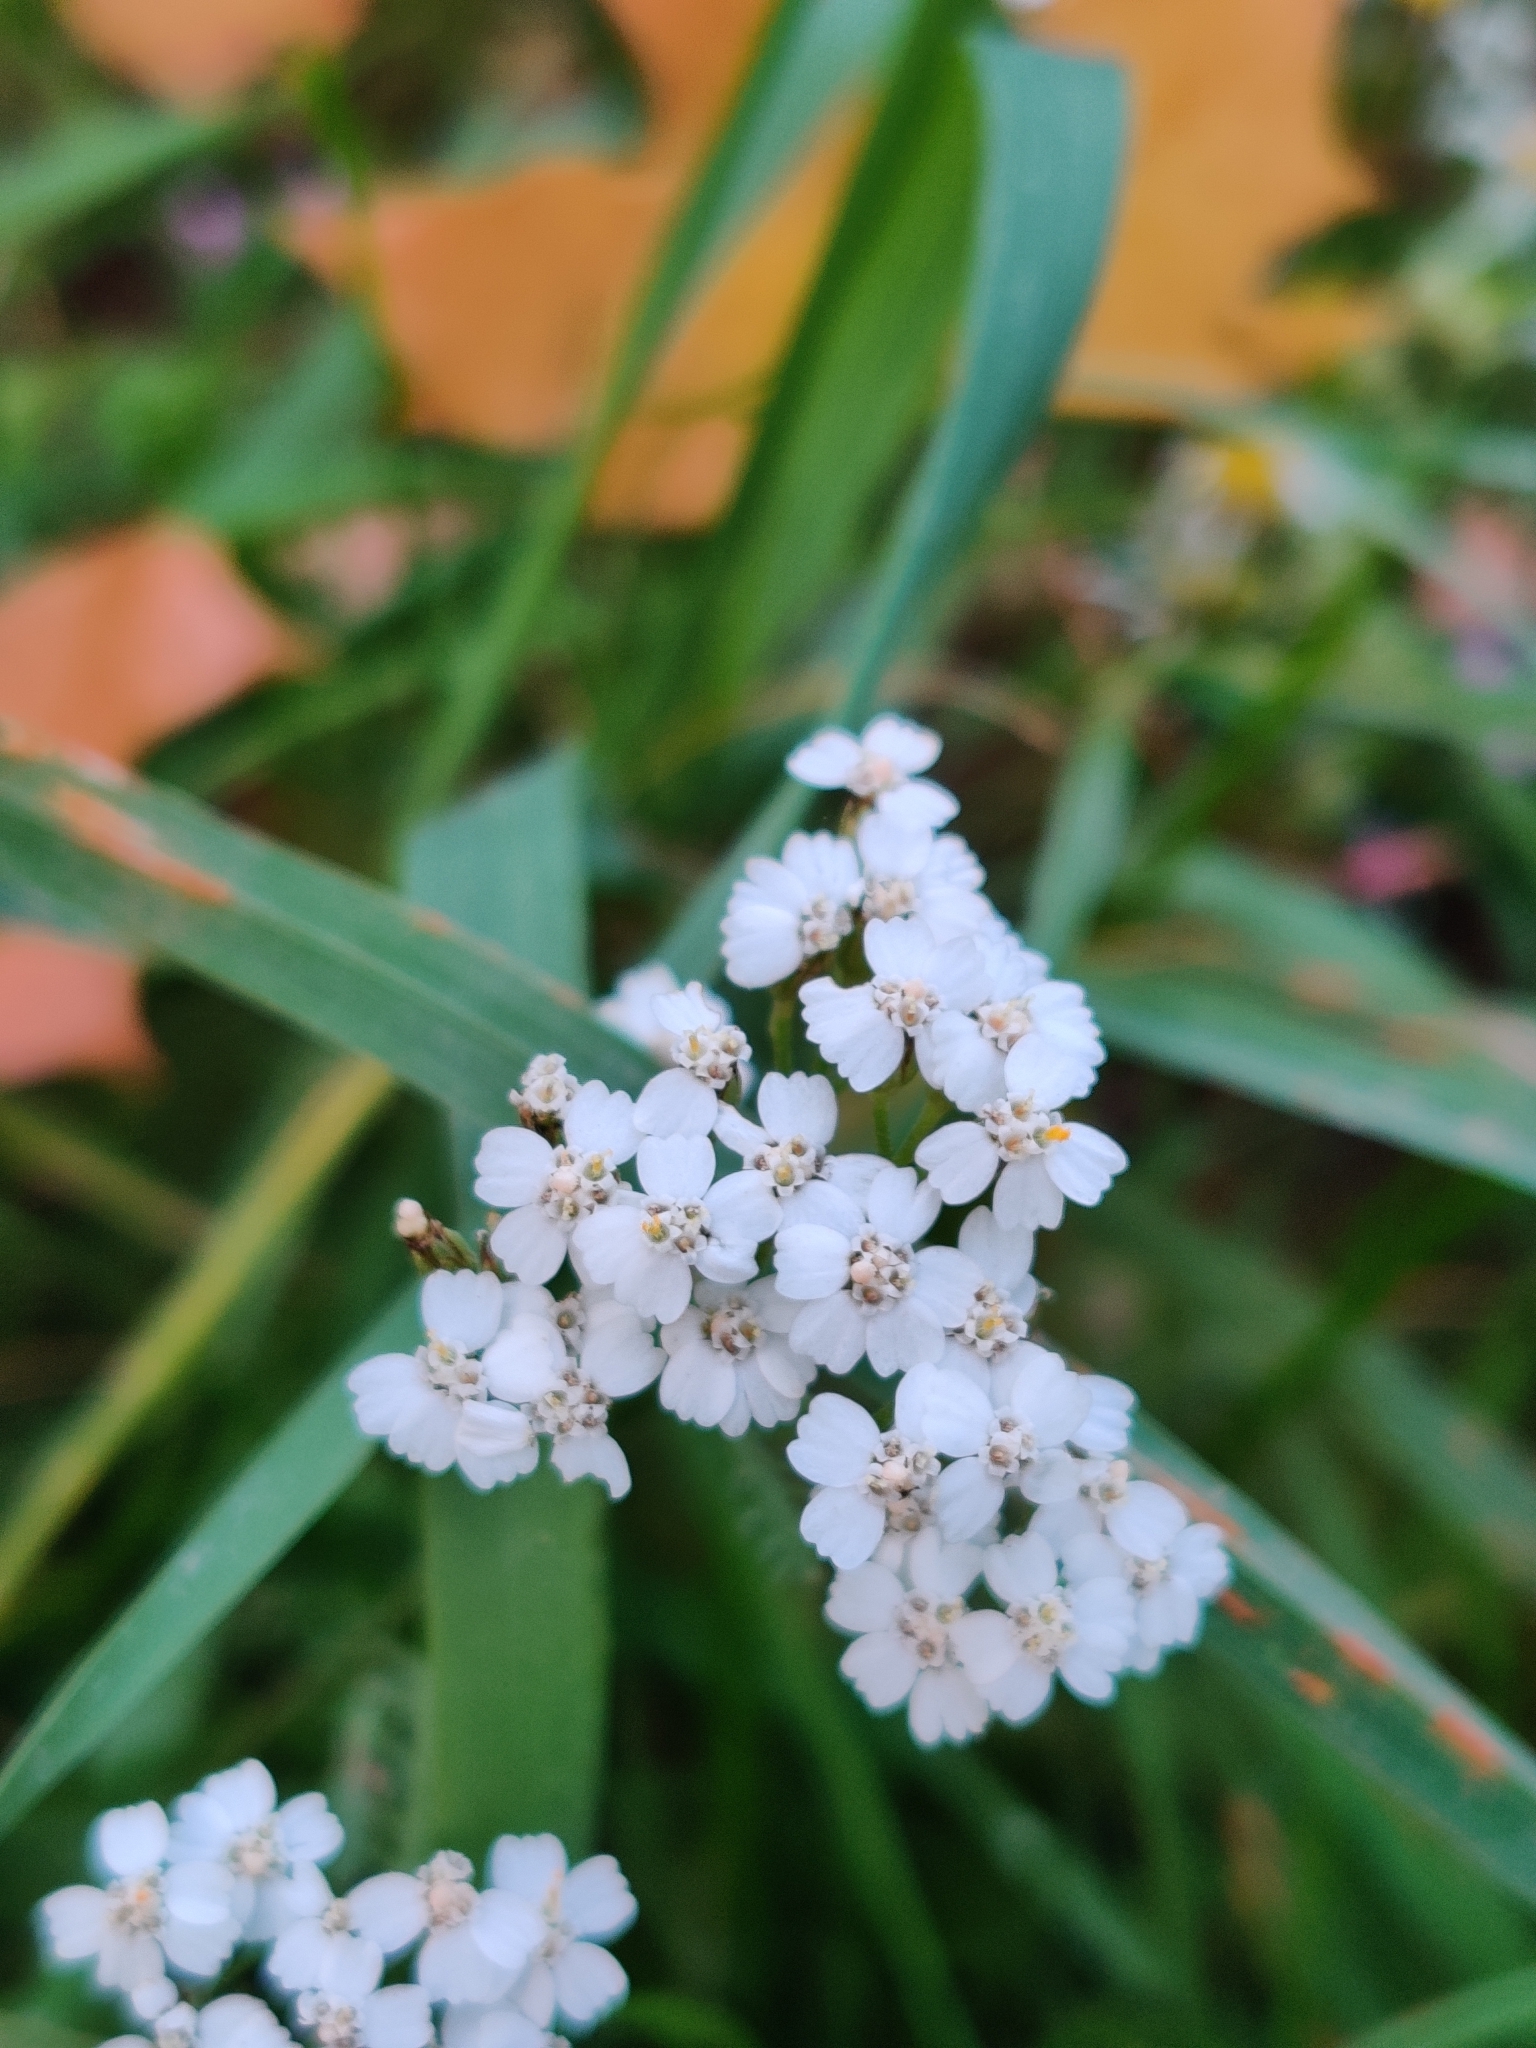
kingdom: Plantae
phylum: Tracheophyta
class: Magnoliopsida
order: Asterales
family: Asteraceae
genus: Achillea
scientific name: Achillea millefolium
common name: Yarrow
